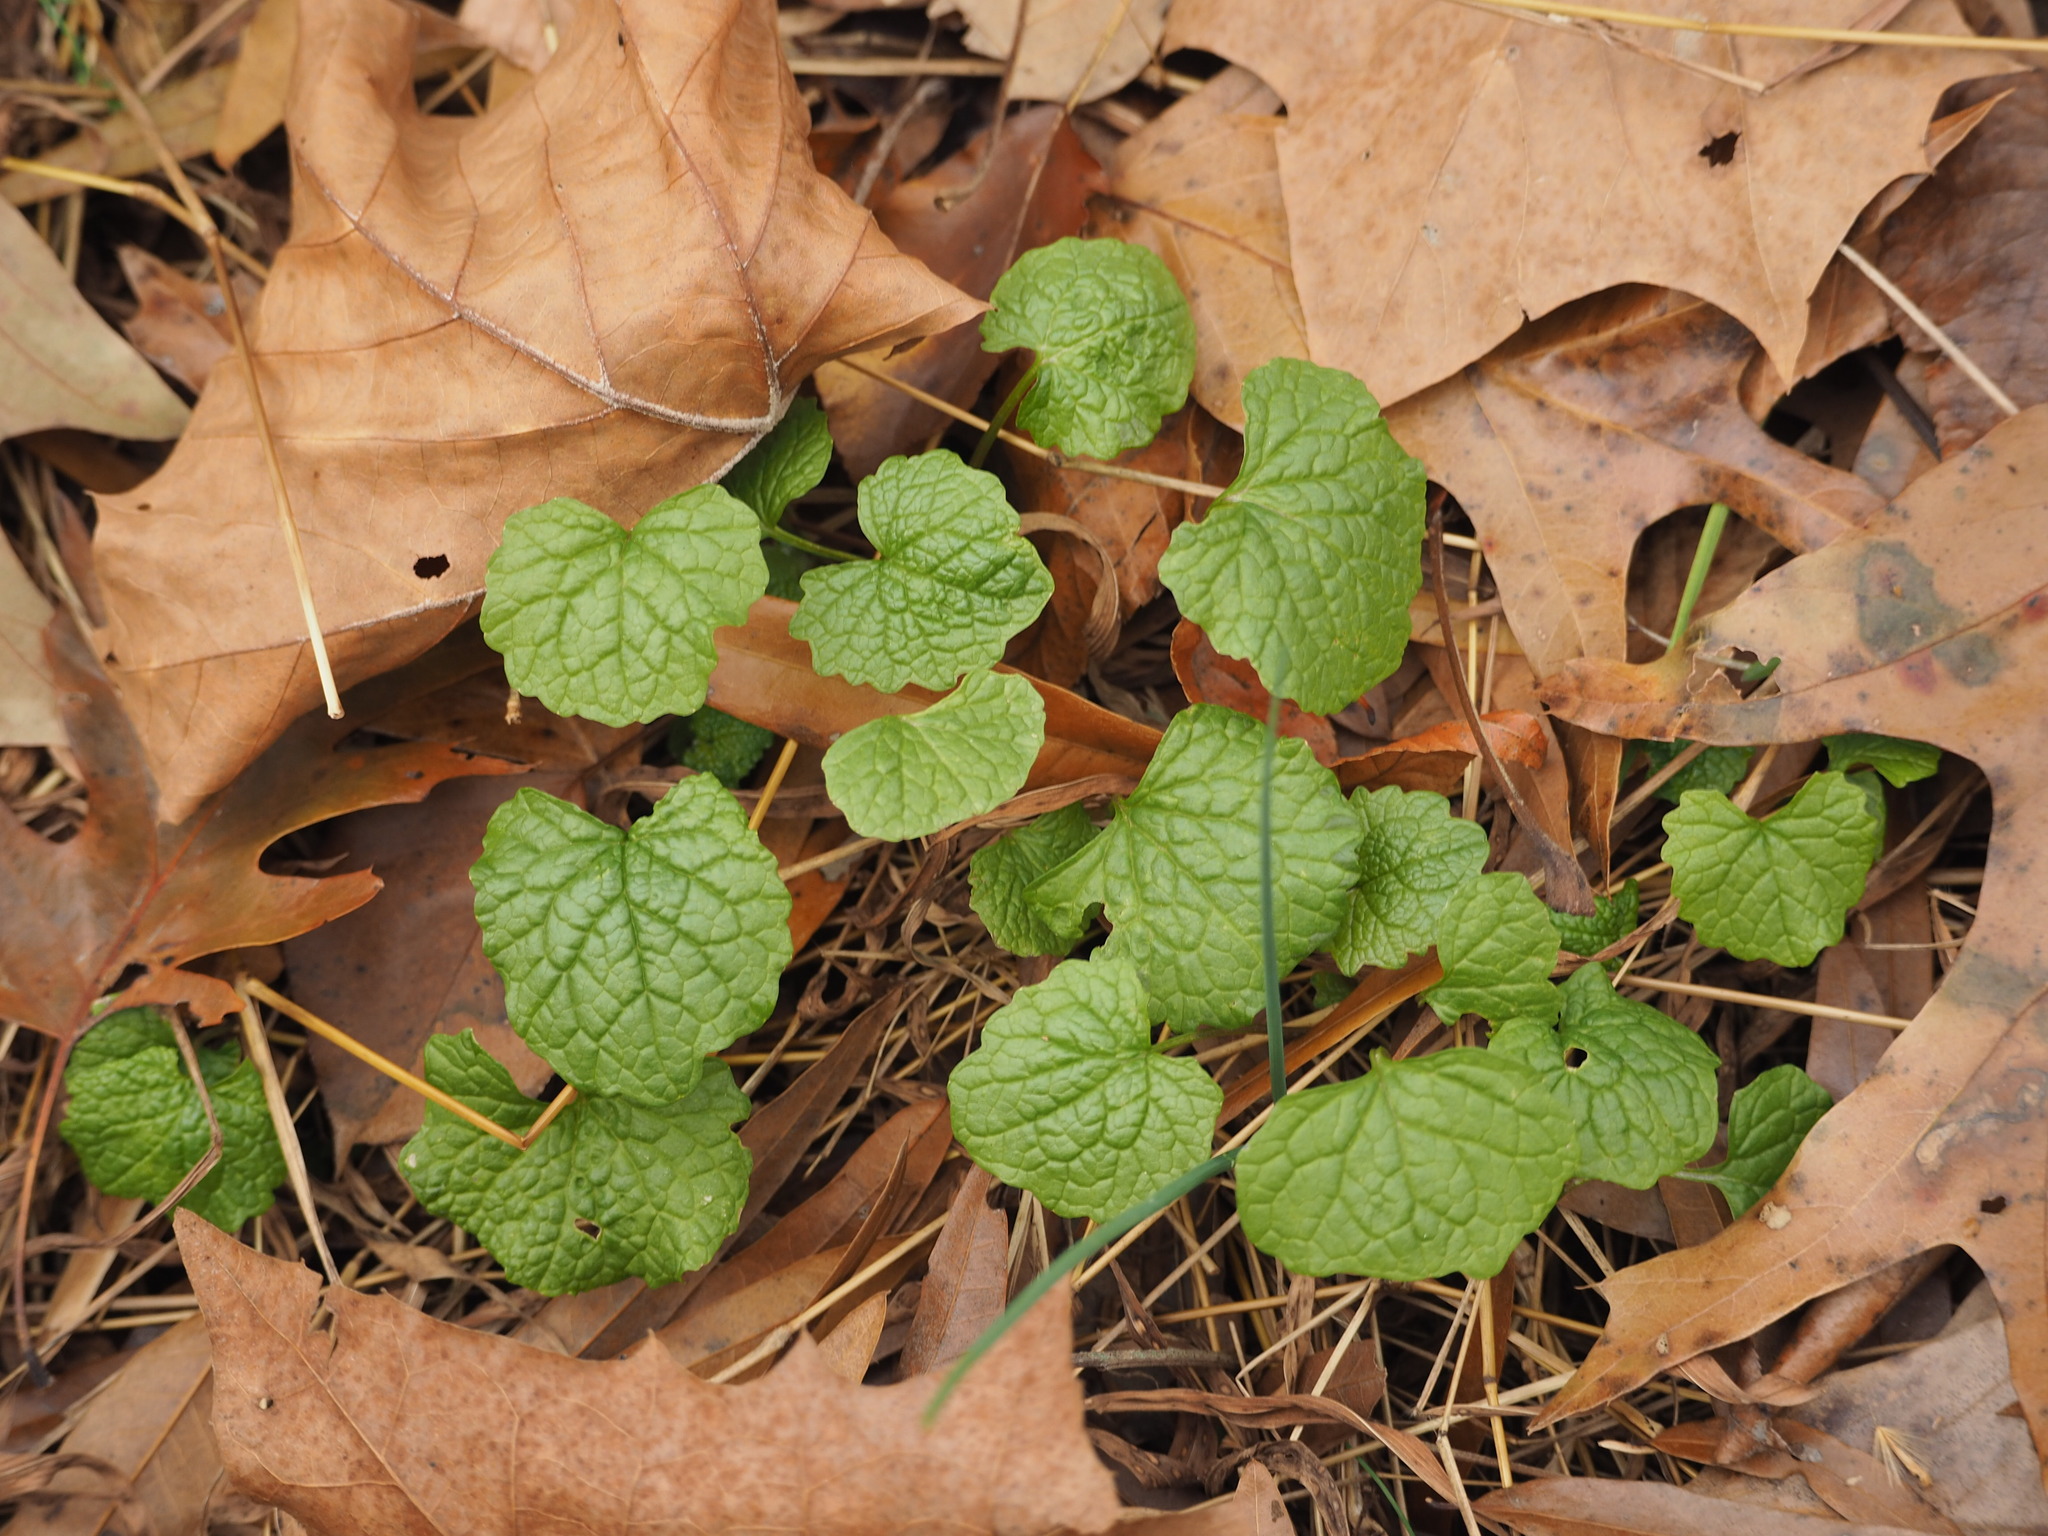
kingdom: Plantae
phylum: Tracheophyta
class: Magnoliopsida
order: Brassicales
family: Brassicaceae
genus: Alliaria
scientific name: Alliaria petiolata
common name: Garlic mustard
